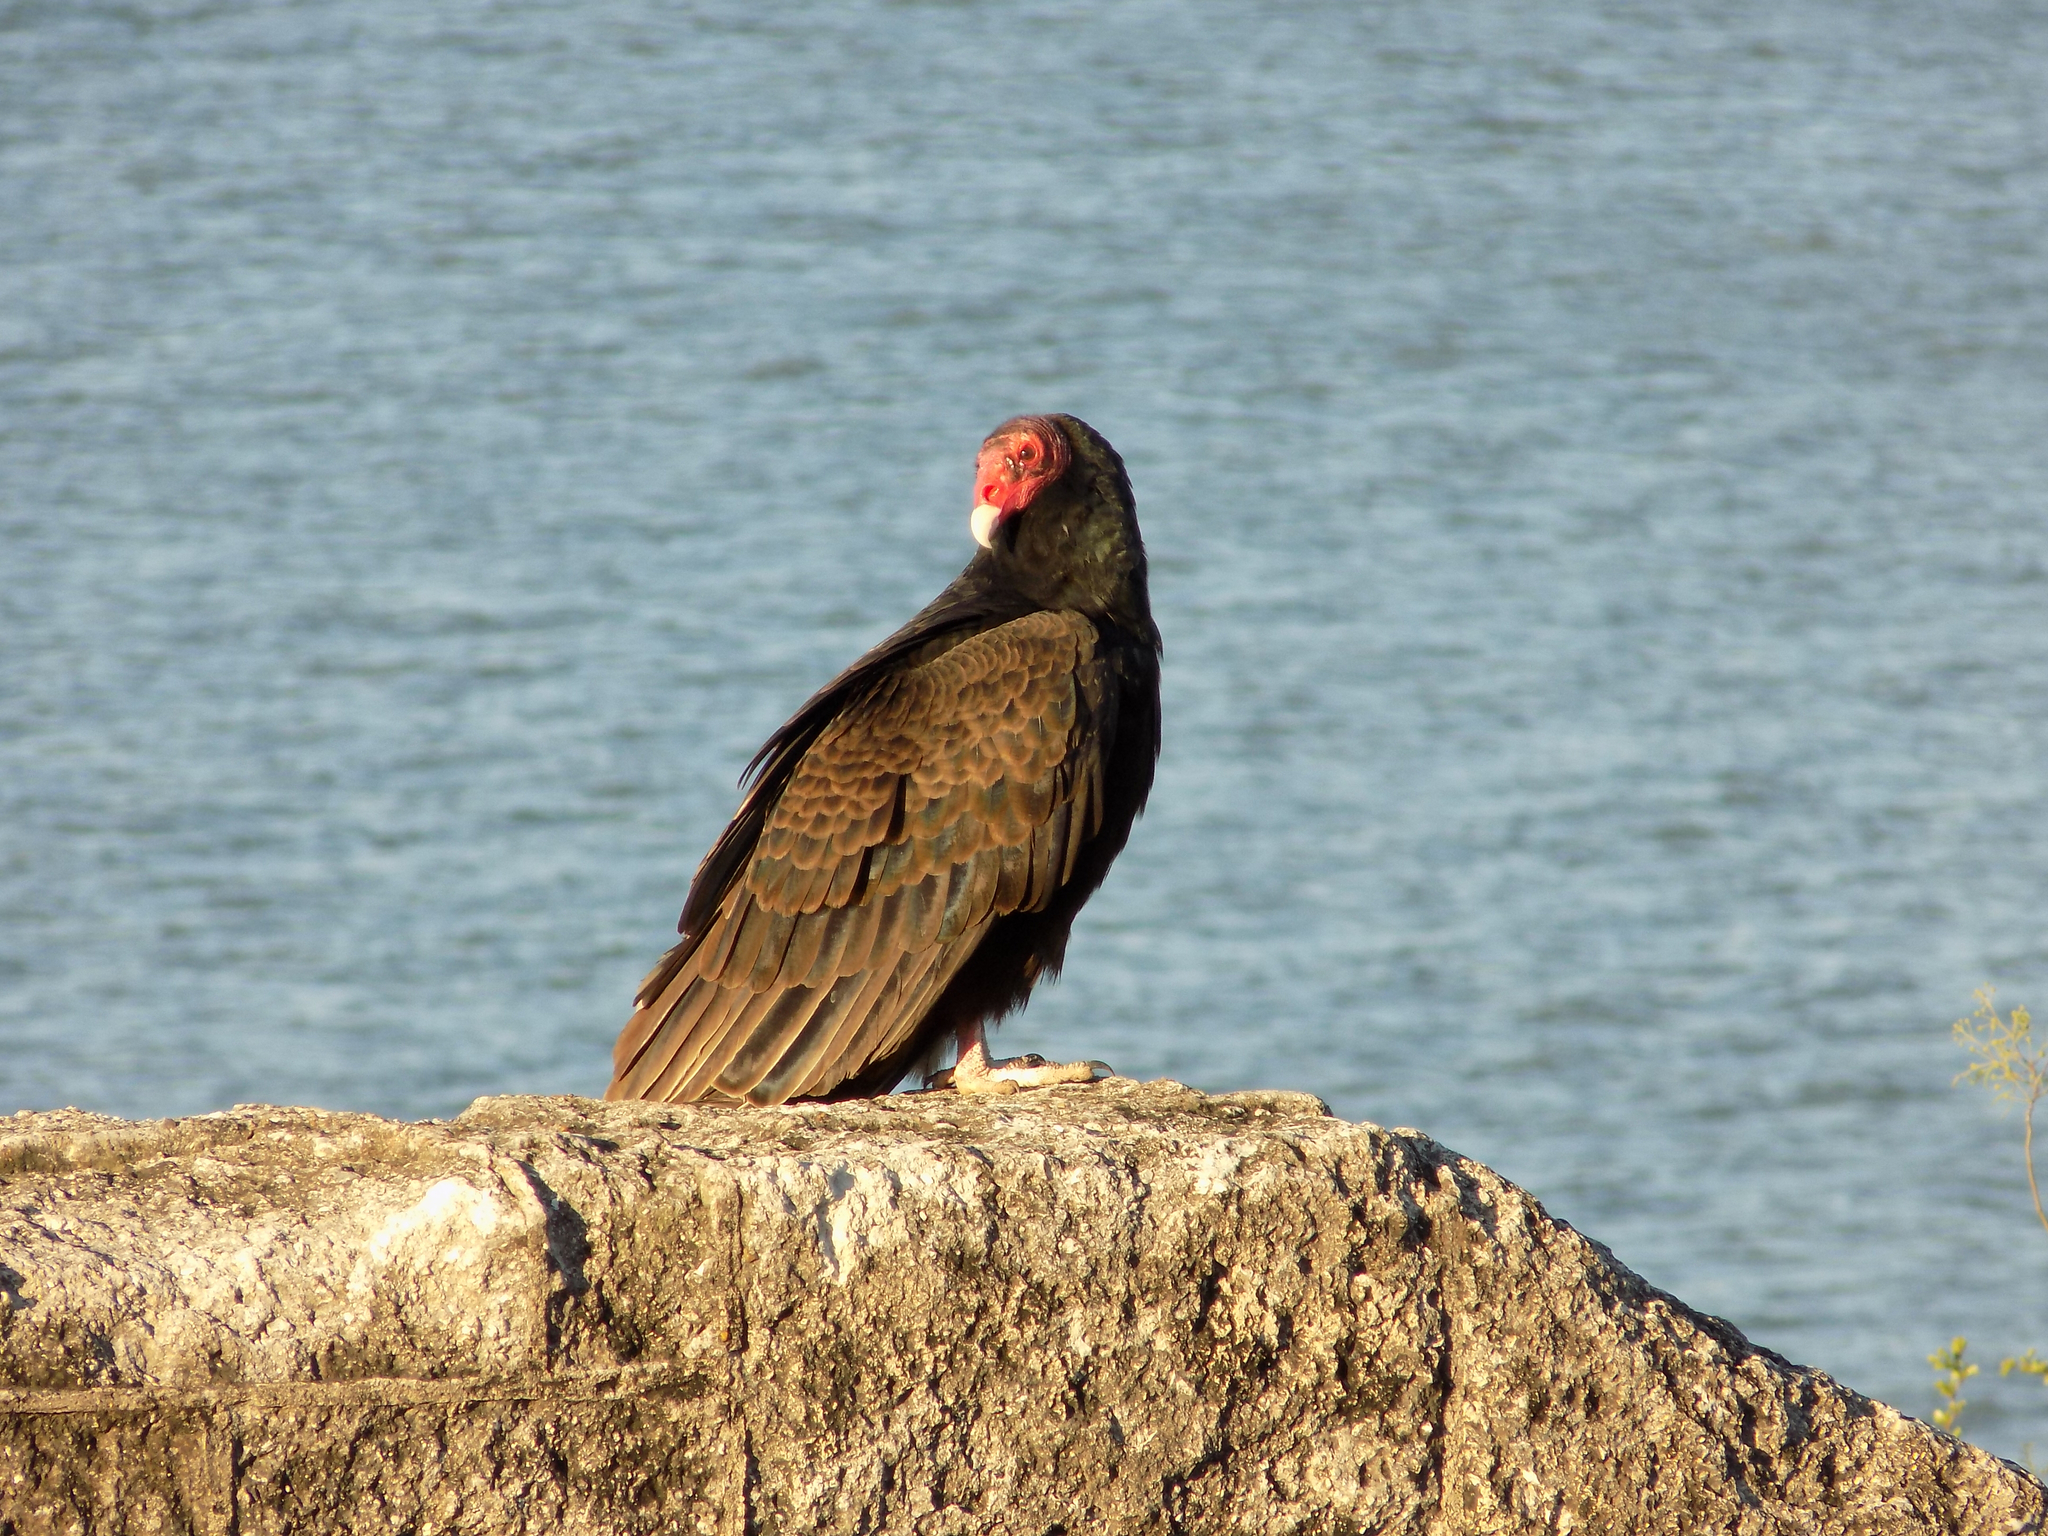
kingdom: Animalia
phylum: Chordata
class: Aves
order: Accipitriformes
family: Cathartidae
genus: Cathartes
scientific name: Cathartes aura
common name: Turkey vulture
